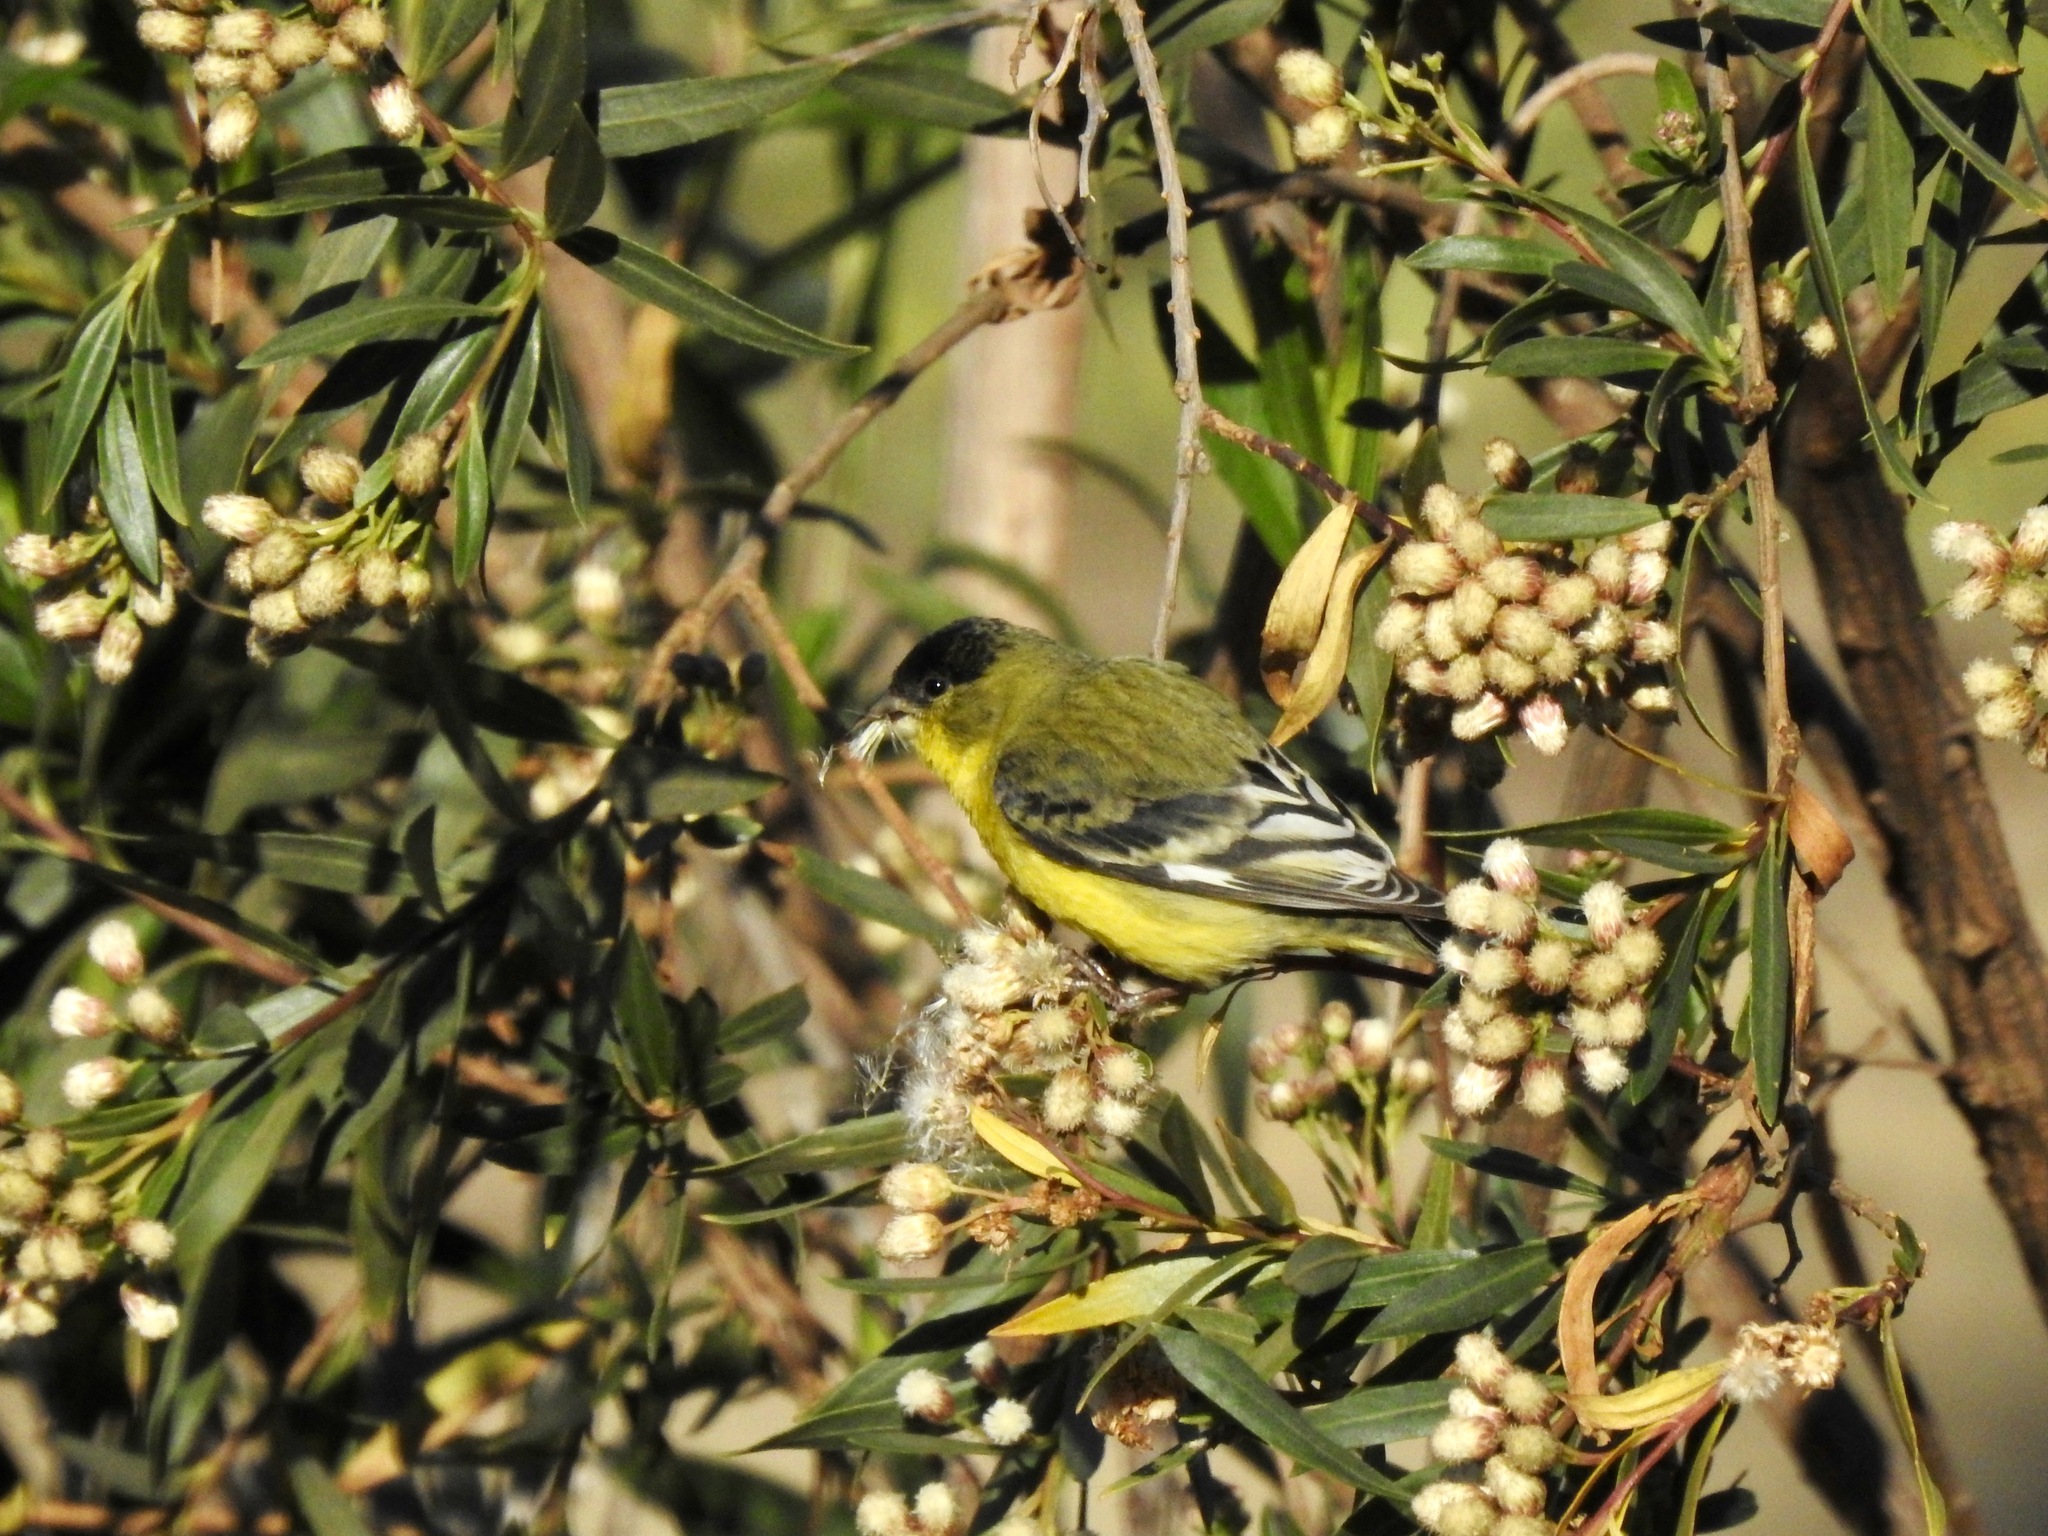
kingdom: Animalia
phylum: Chordata
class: Aves
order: Passeriformes
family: Fringillidae
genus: Spinus
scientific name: Spinus psaltria
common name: Lesser goldfinch
